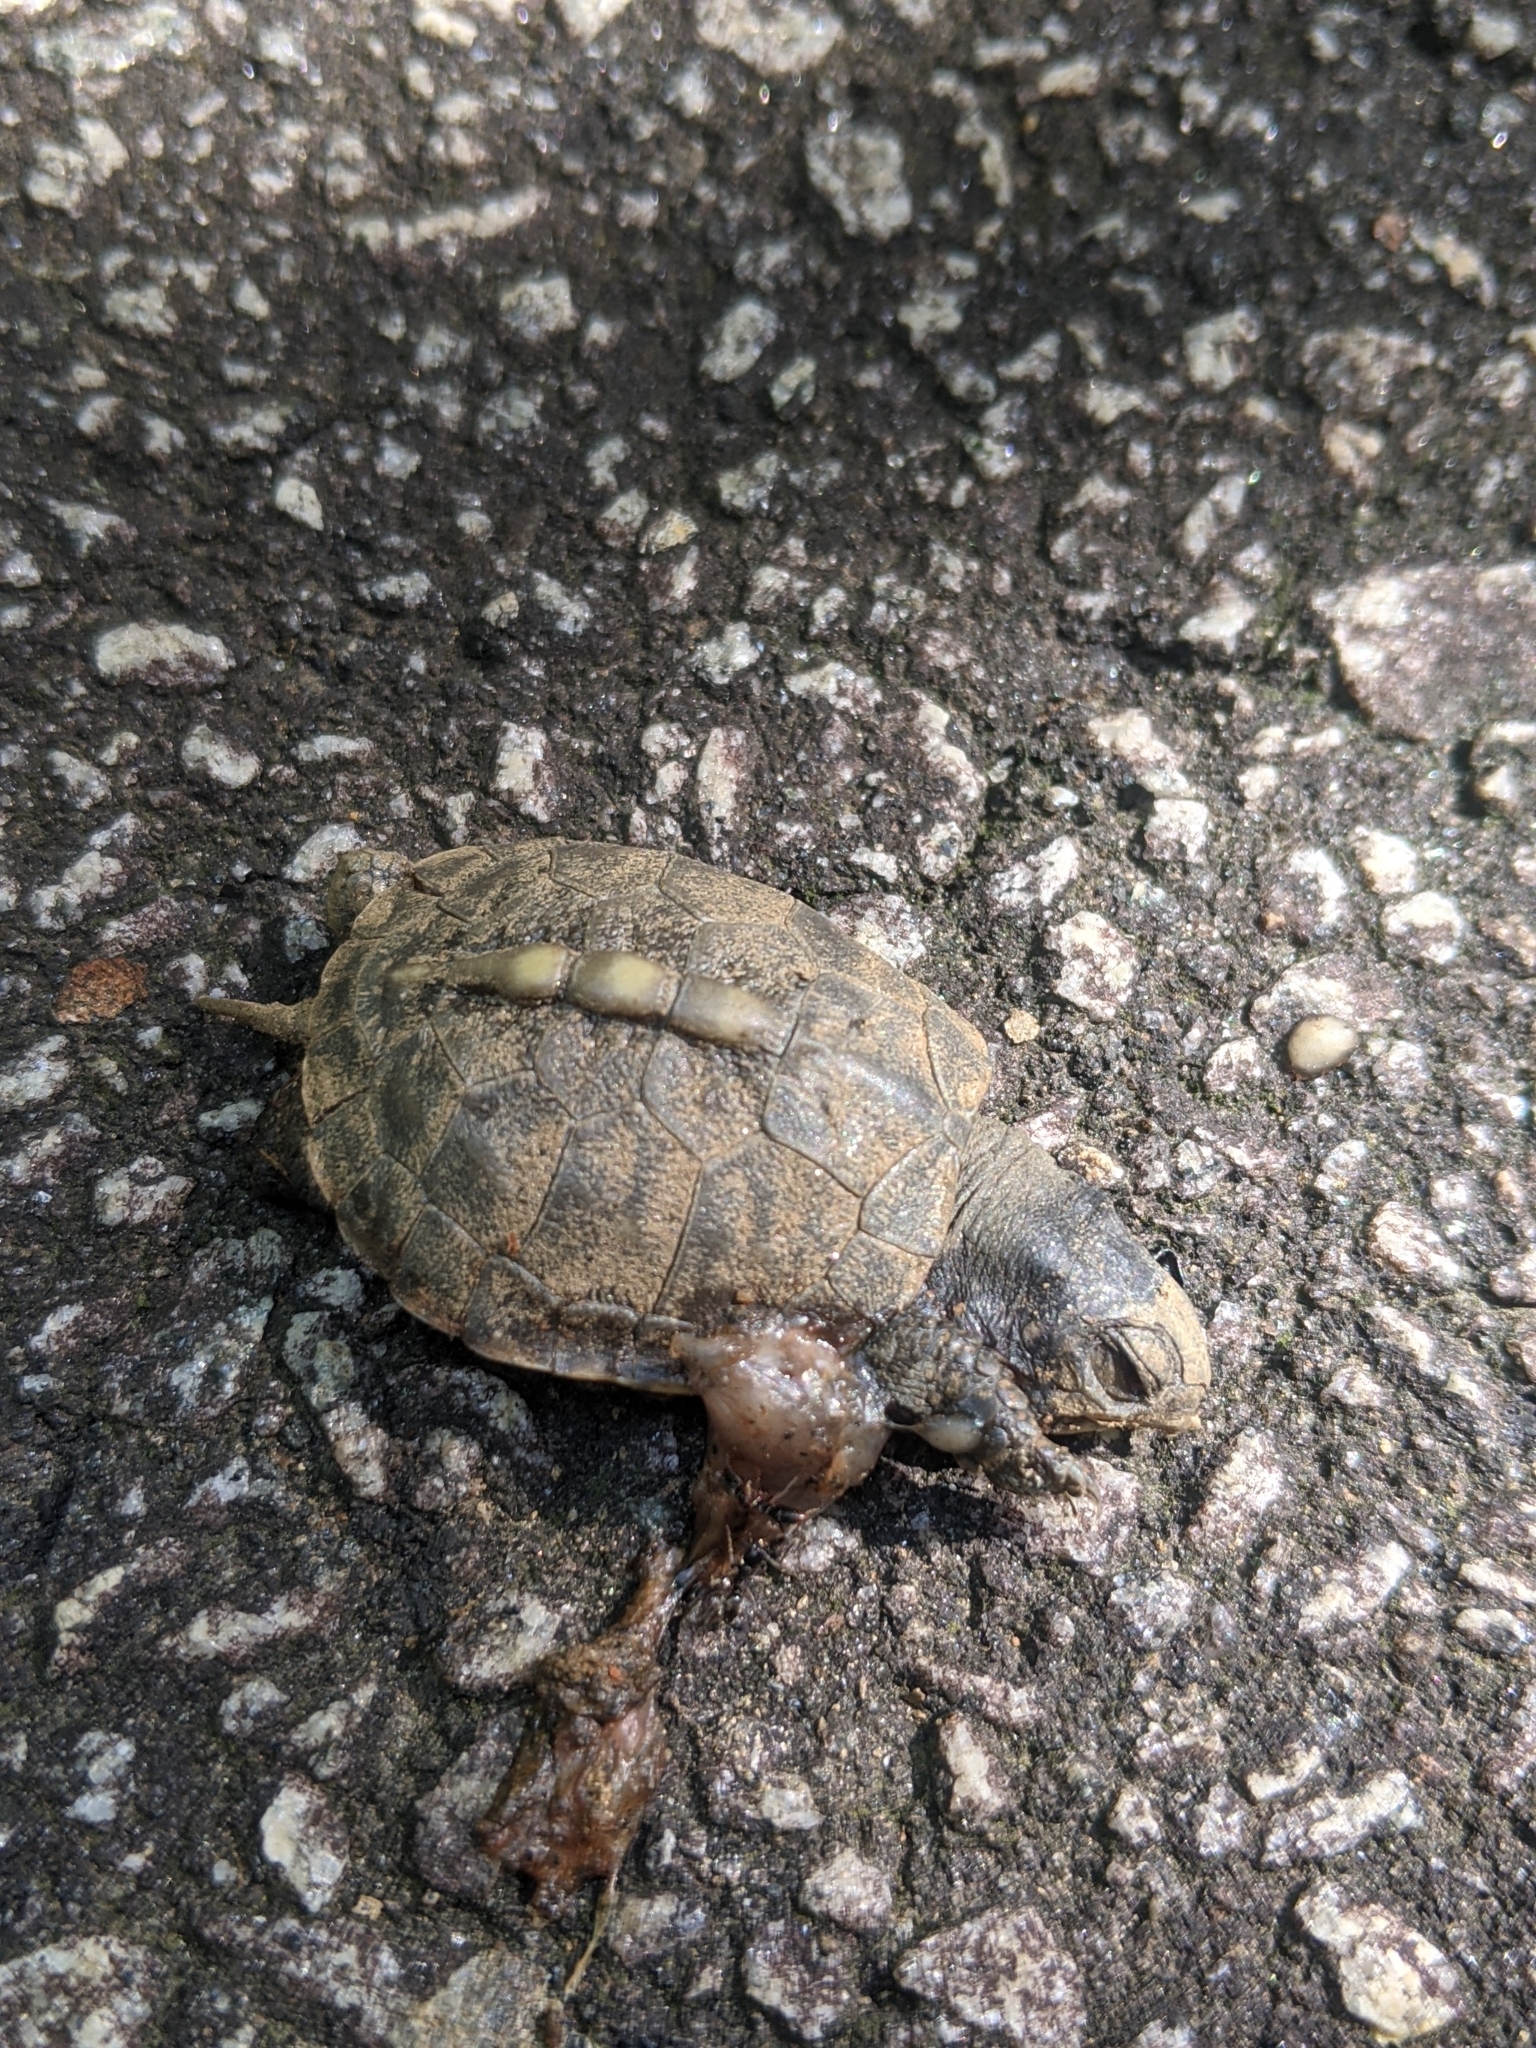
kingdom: Animalia
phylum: Chordata
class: Testudines
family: Emydidae
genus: Terrapene
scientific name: Terrapene carolina
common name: Common box turtle
